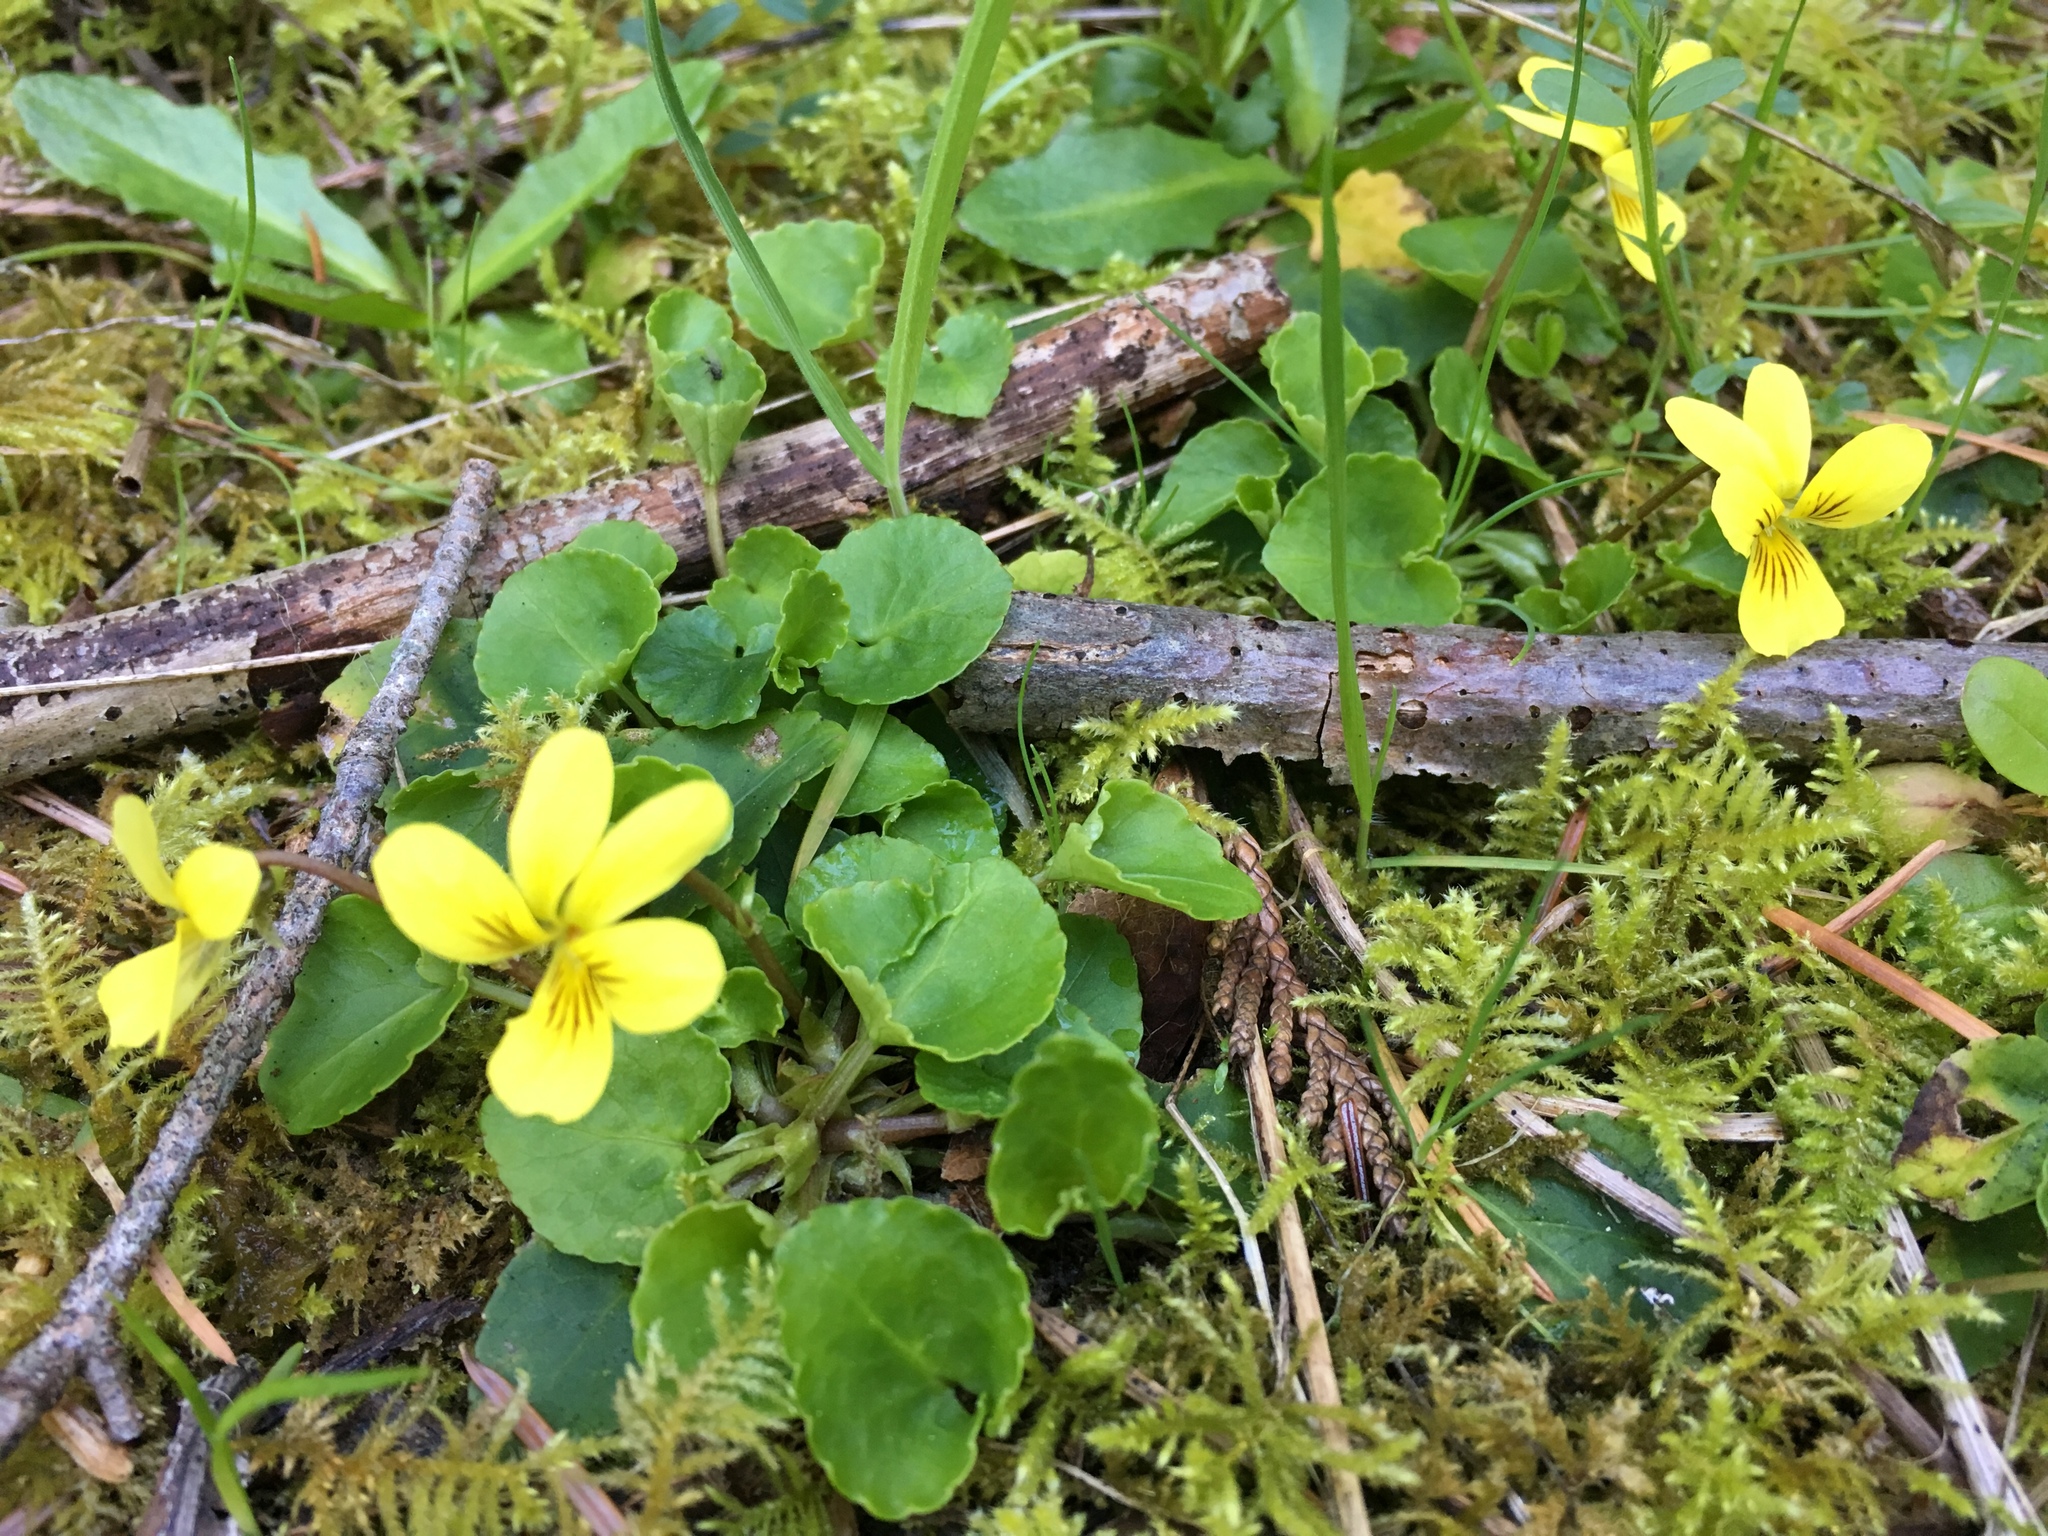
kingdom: Plantae
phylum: Tracheophyta
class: Magnoliopsida
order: Malpighiales
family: Violaceae
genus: Viola
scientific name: Viola sempervirens
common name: Evergreen violet
